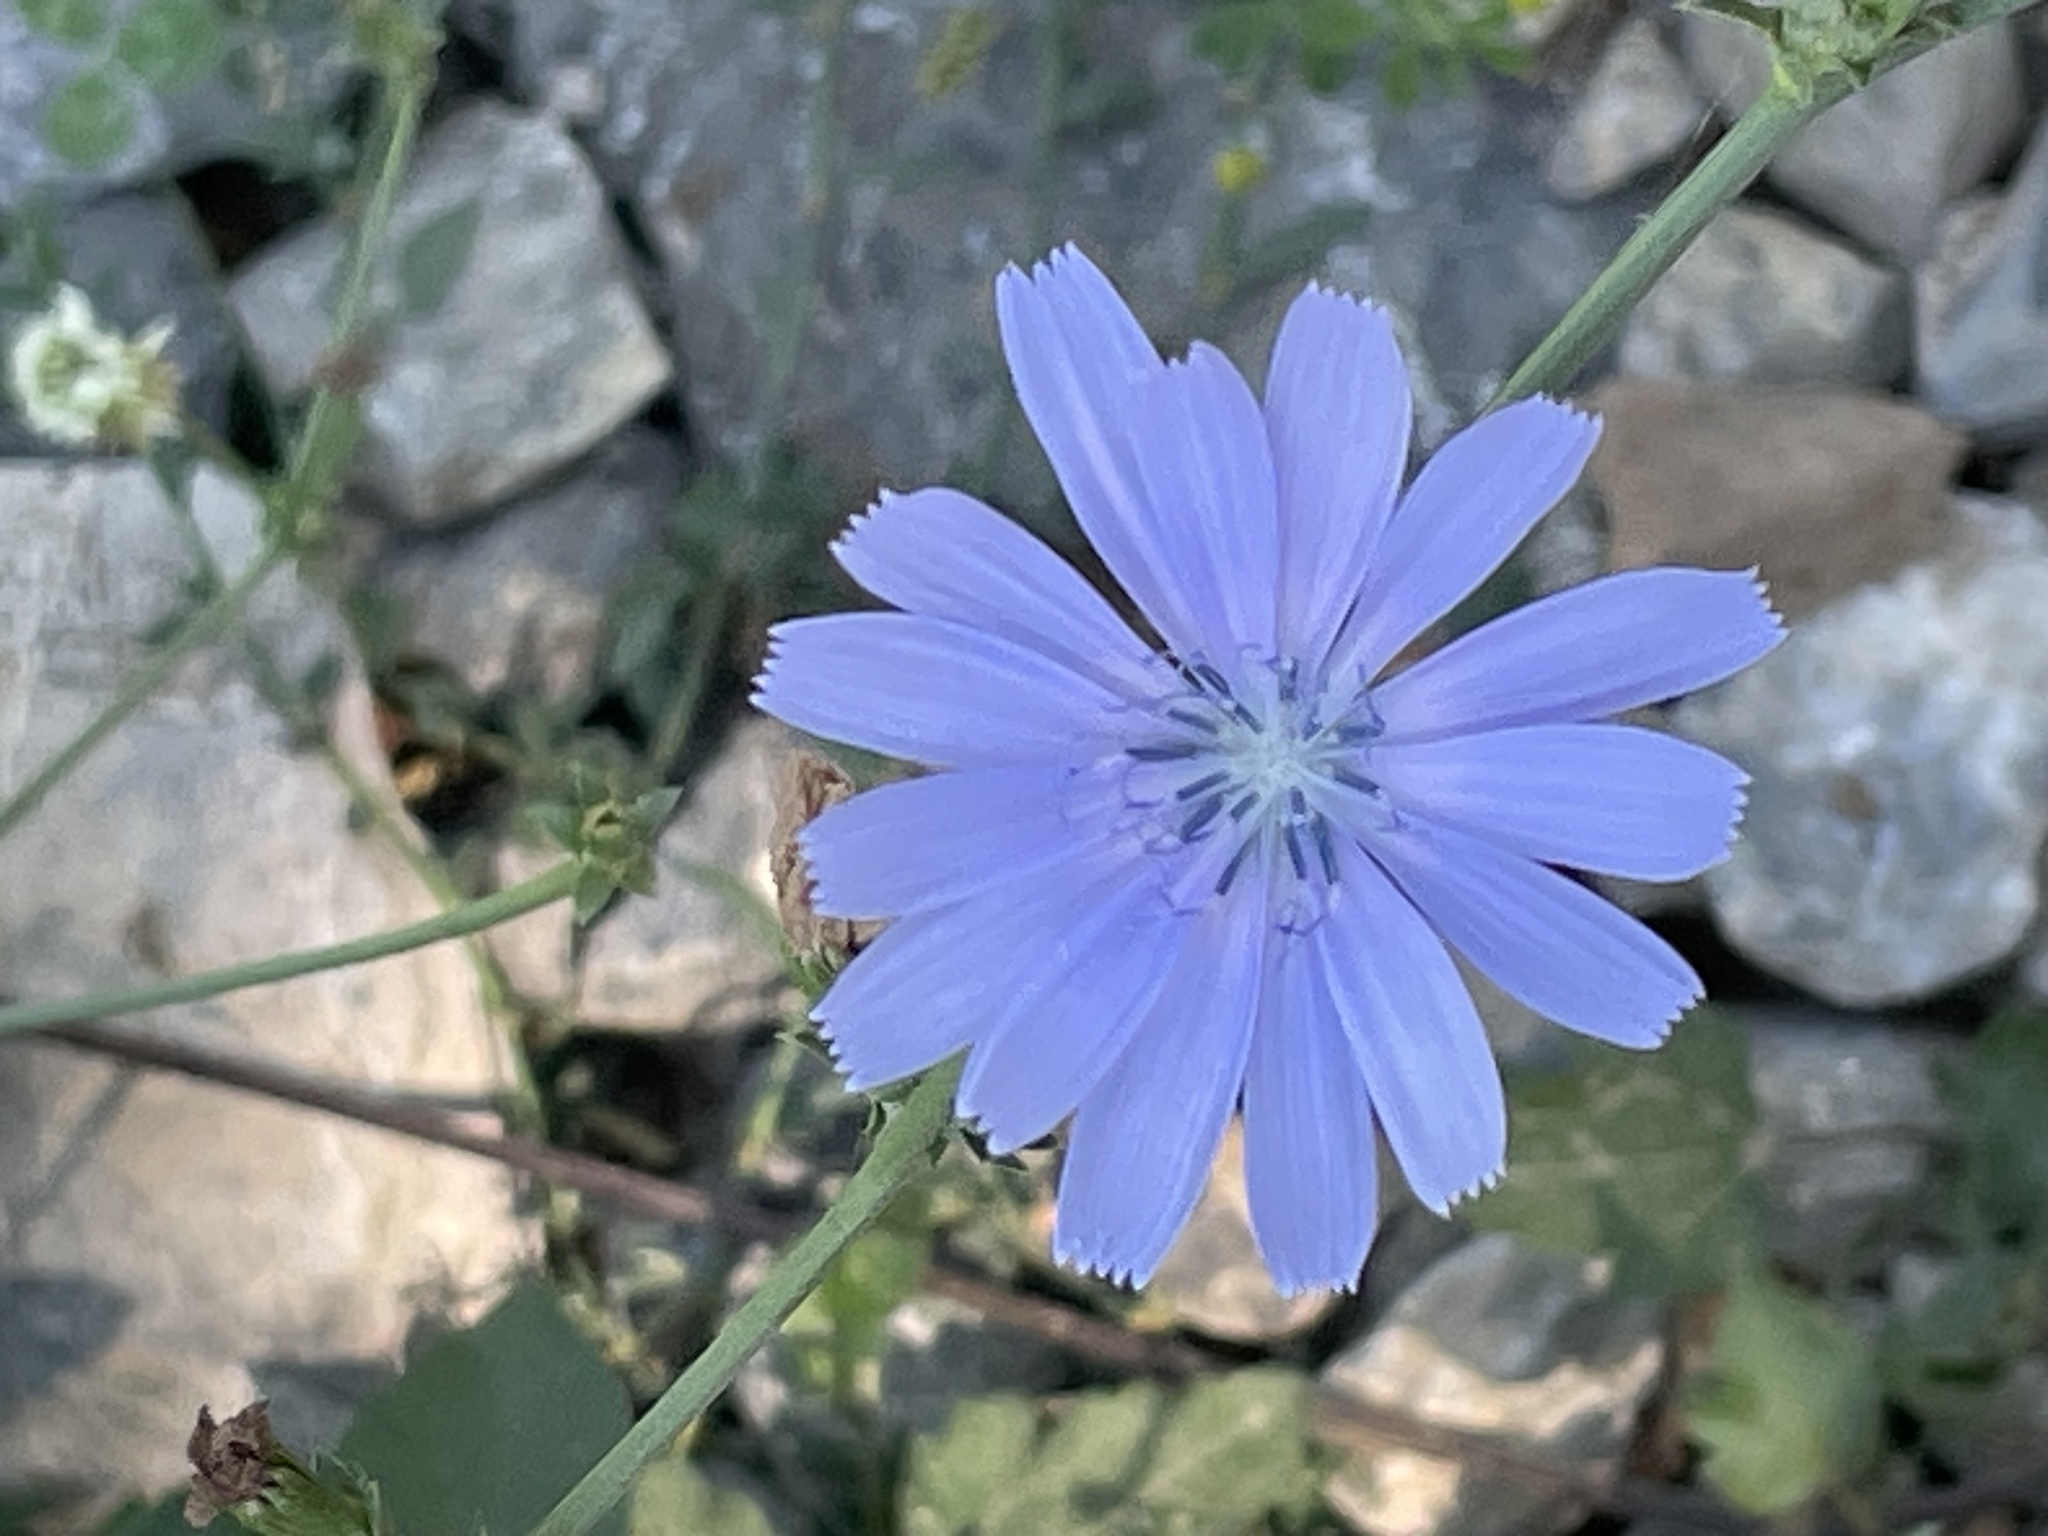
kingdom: Plantae
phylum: Tracheophyta
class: Magnoliopsida
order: Asterales
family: Asteraceae
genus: Cichorium
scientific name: Cichorium intybus
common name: Chicory
